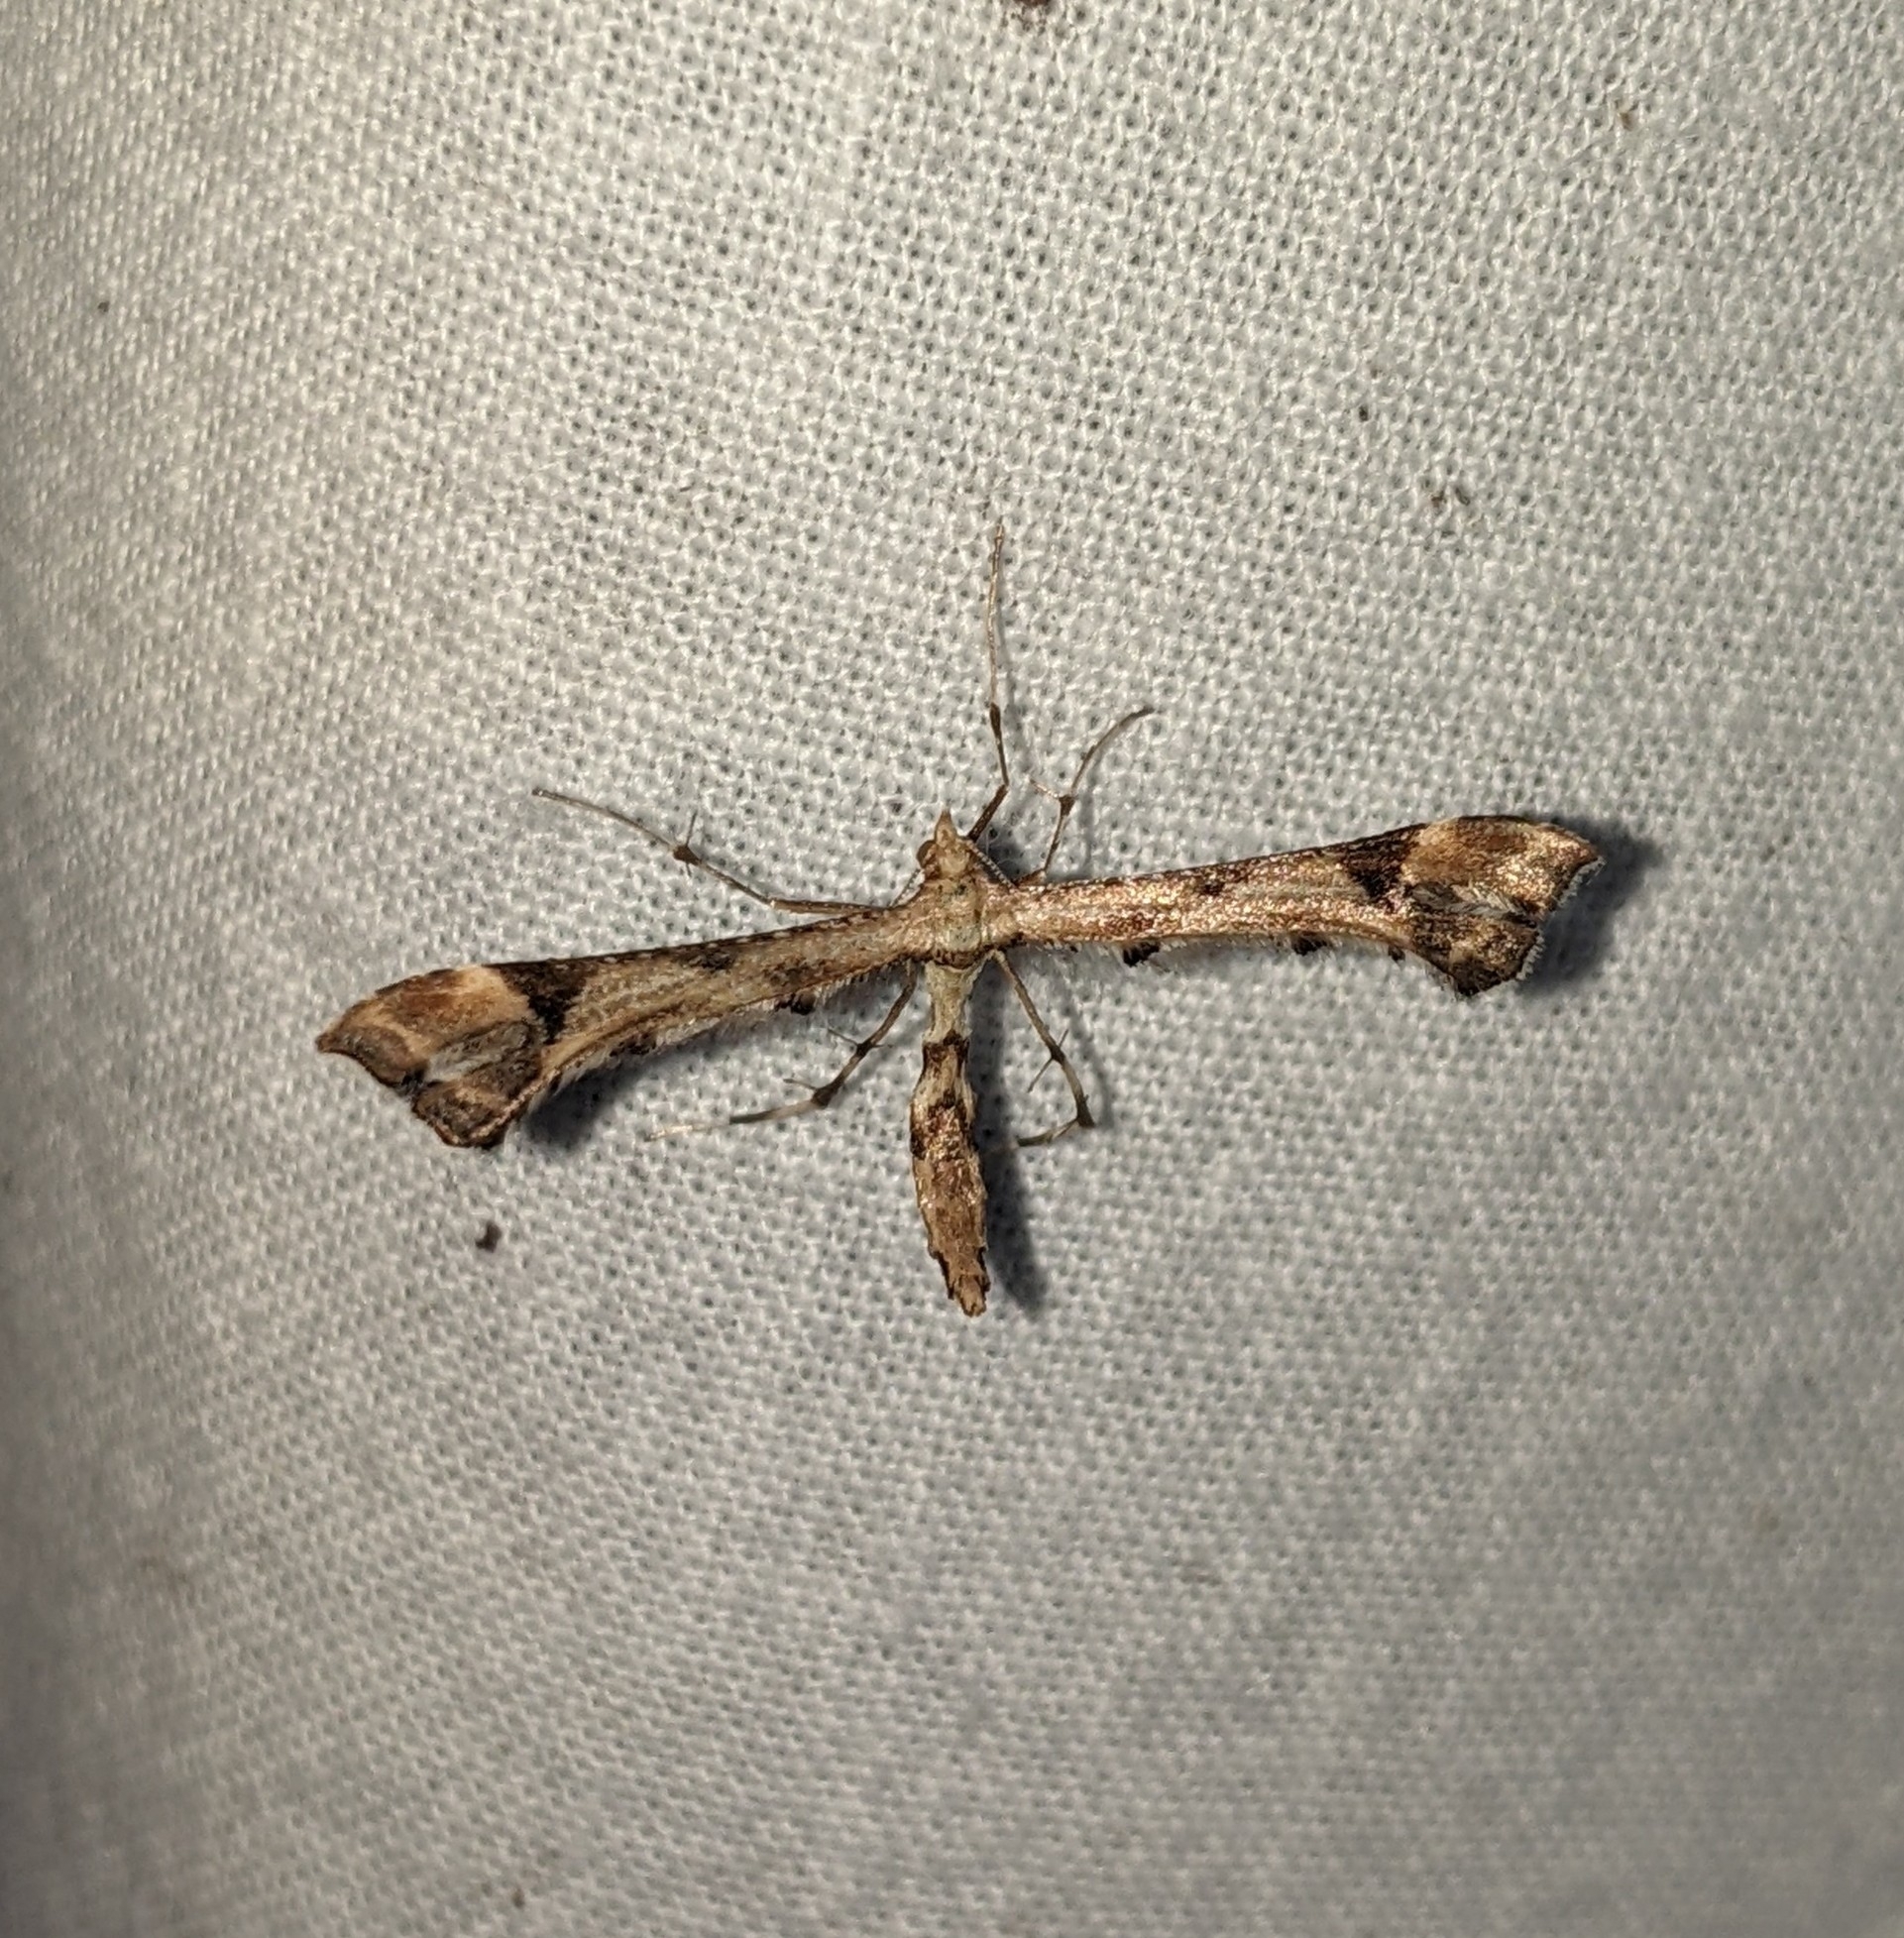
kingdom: Animalia
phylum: Arthropoda
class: Insecta
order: Lepidoptera
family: Pterophoridae
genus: Platyptilia
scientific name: Platyptilia carduidactylus
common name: Artichoke plume moth
